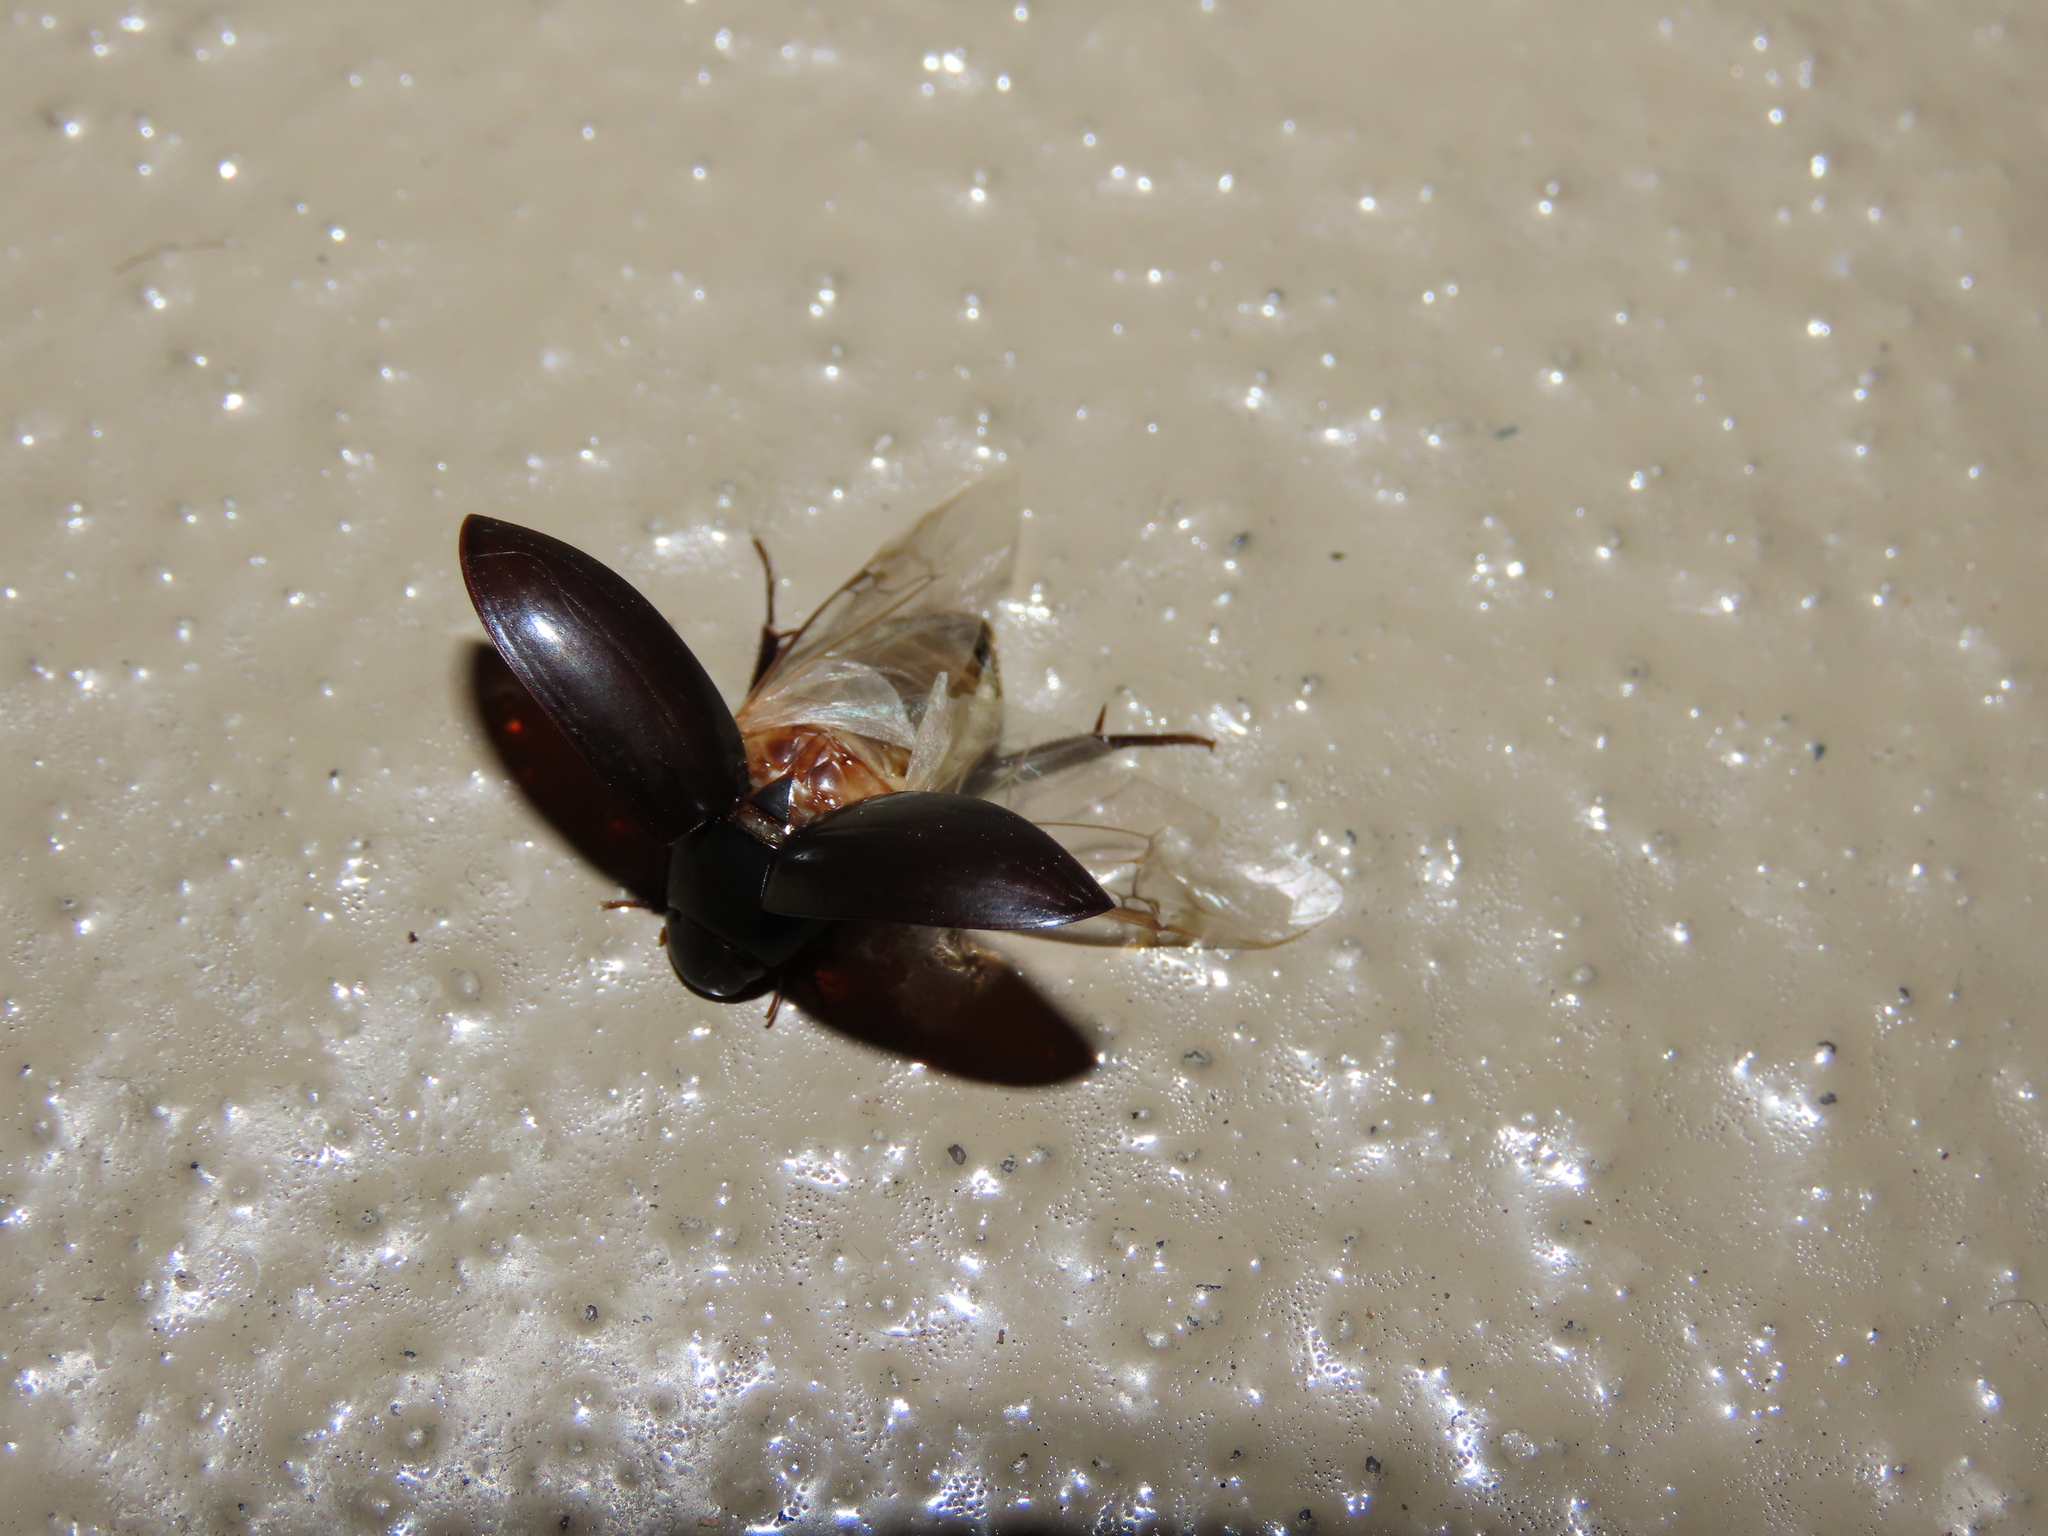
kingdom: Animalia
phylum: Arthropoda
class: Insecta
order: Coleoptera
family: Hydrophilidae
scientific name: Hydrophilidae
